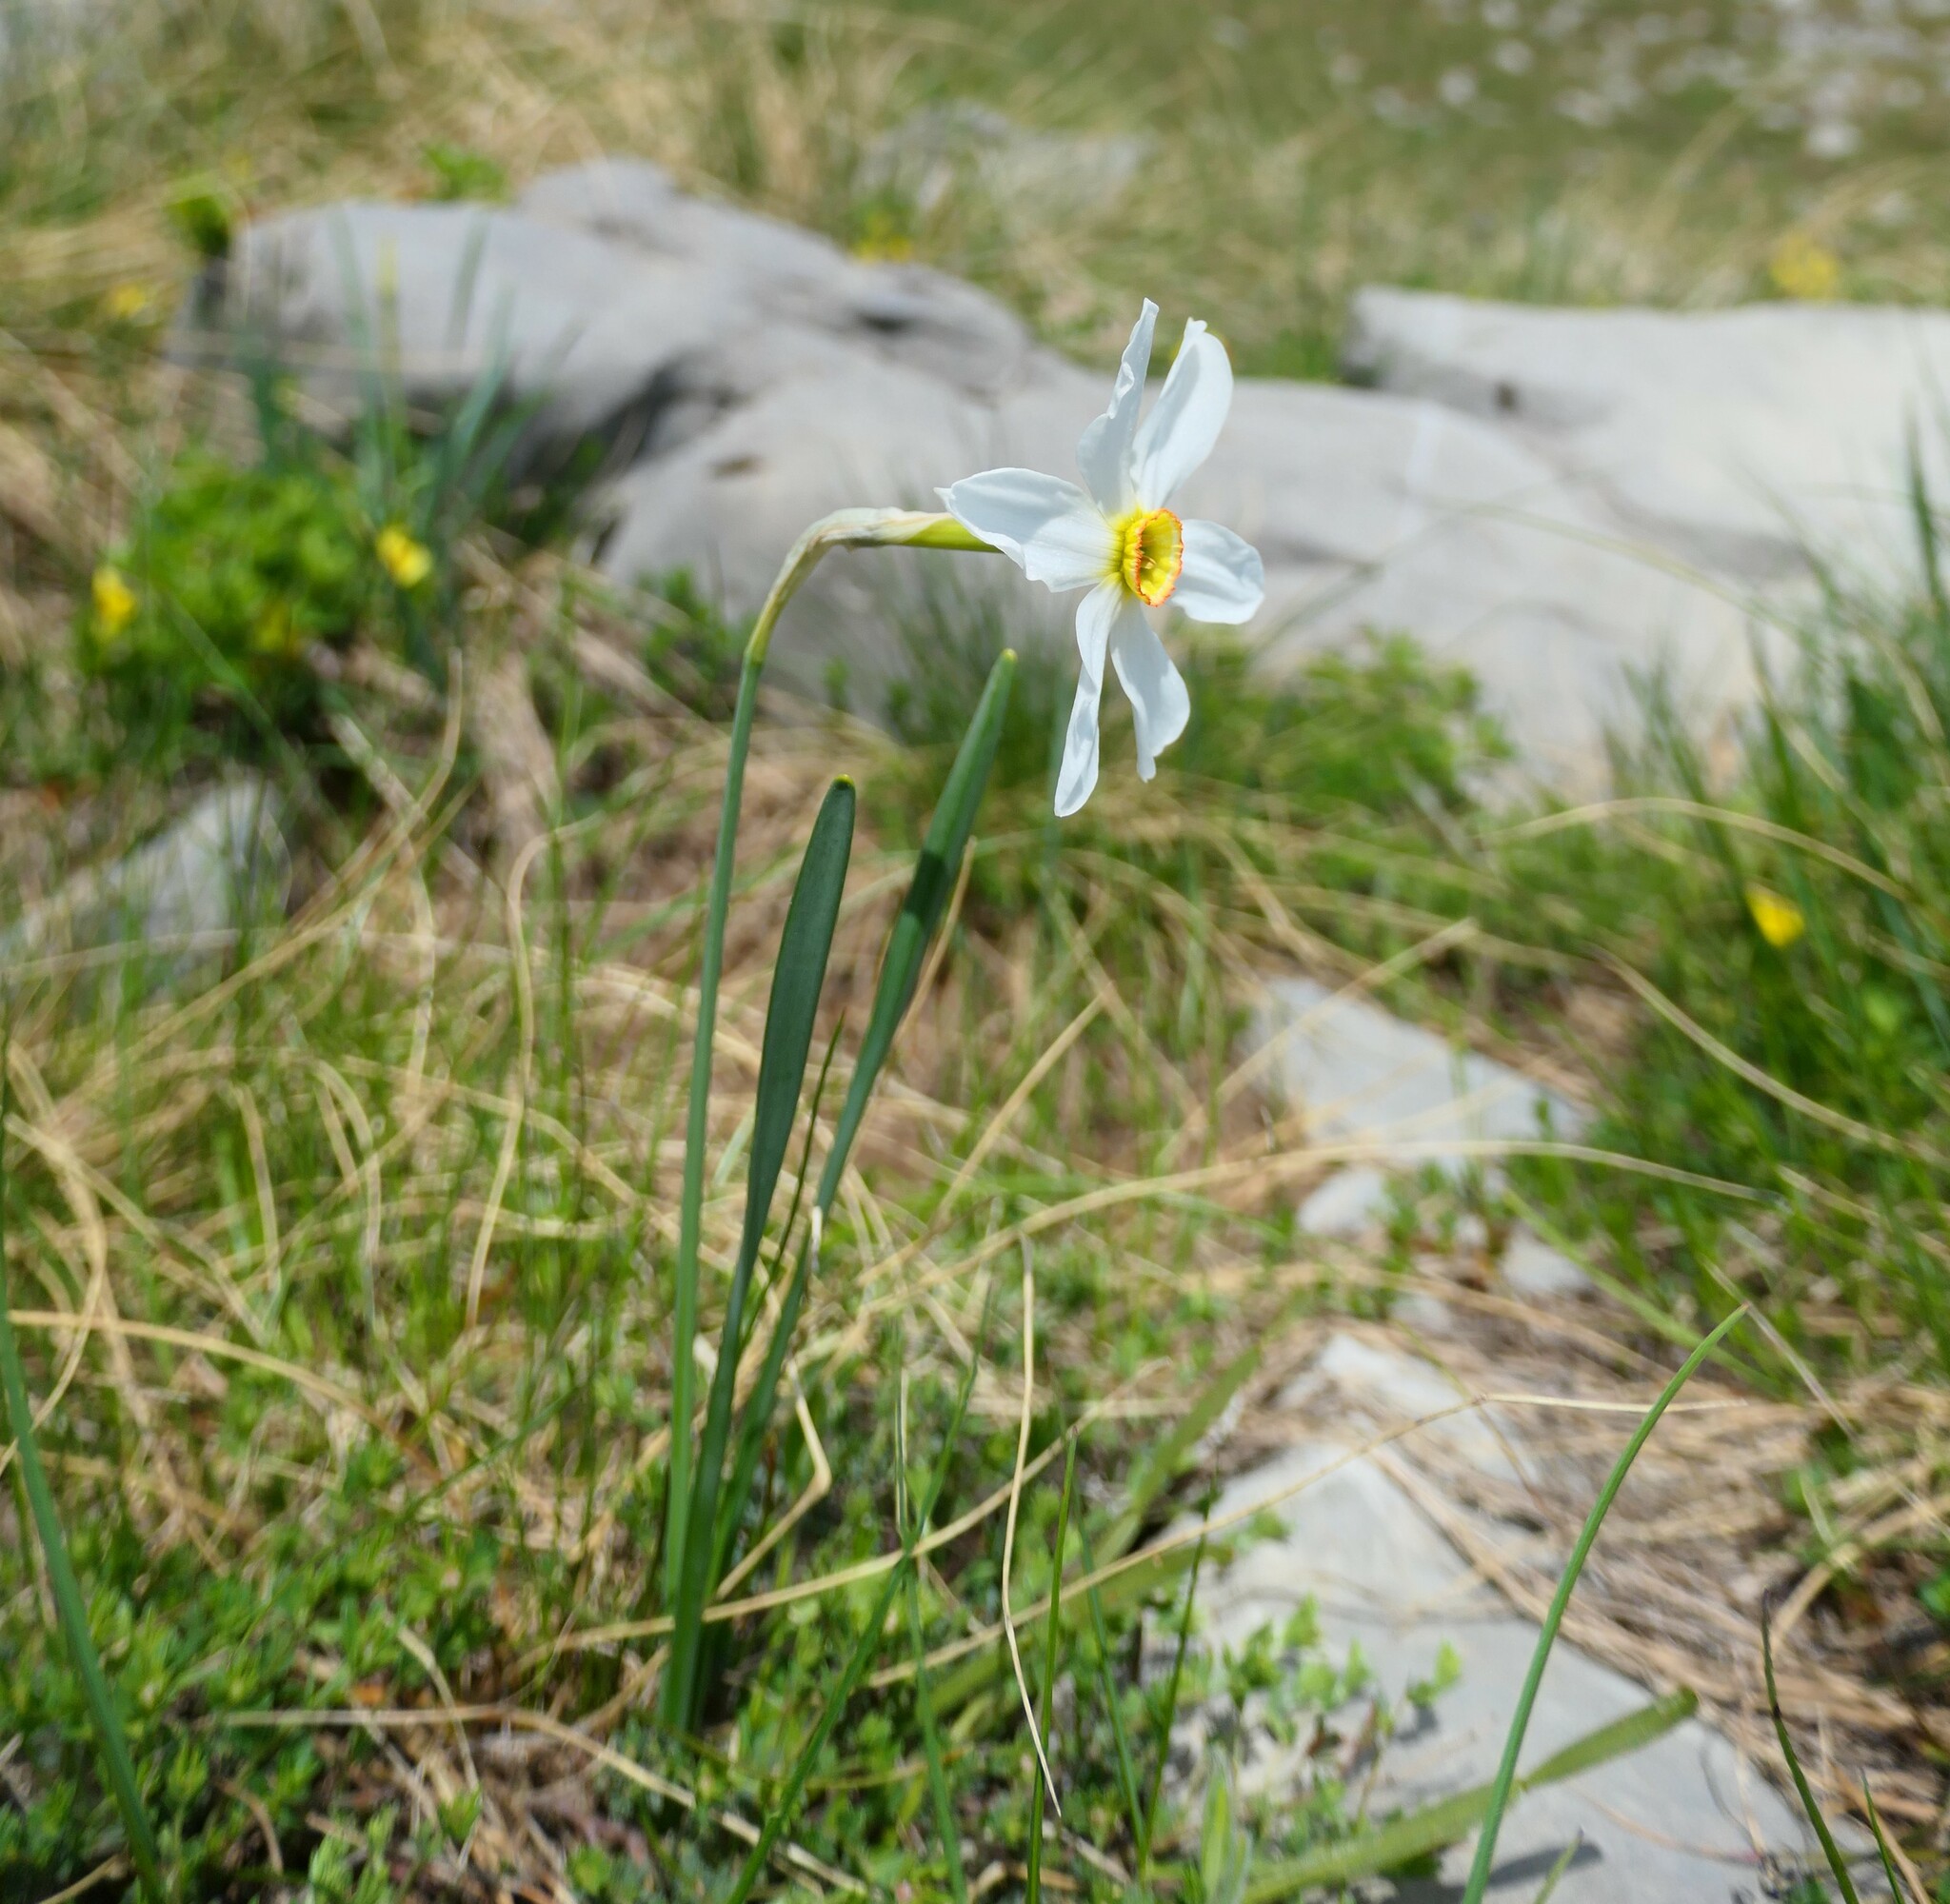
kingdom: Plantae
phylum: Tracheophyta
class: Liliopsida
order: Asparagales
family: Amaryllidaceae
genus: Narcissus
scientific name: Narcissus poeticus
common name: Pheasant's-eye daffodil
